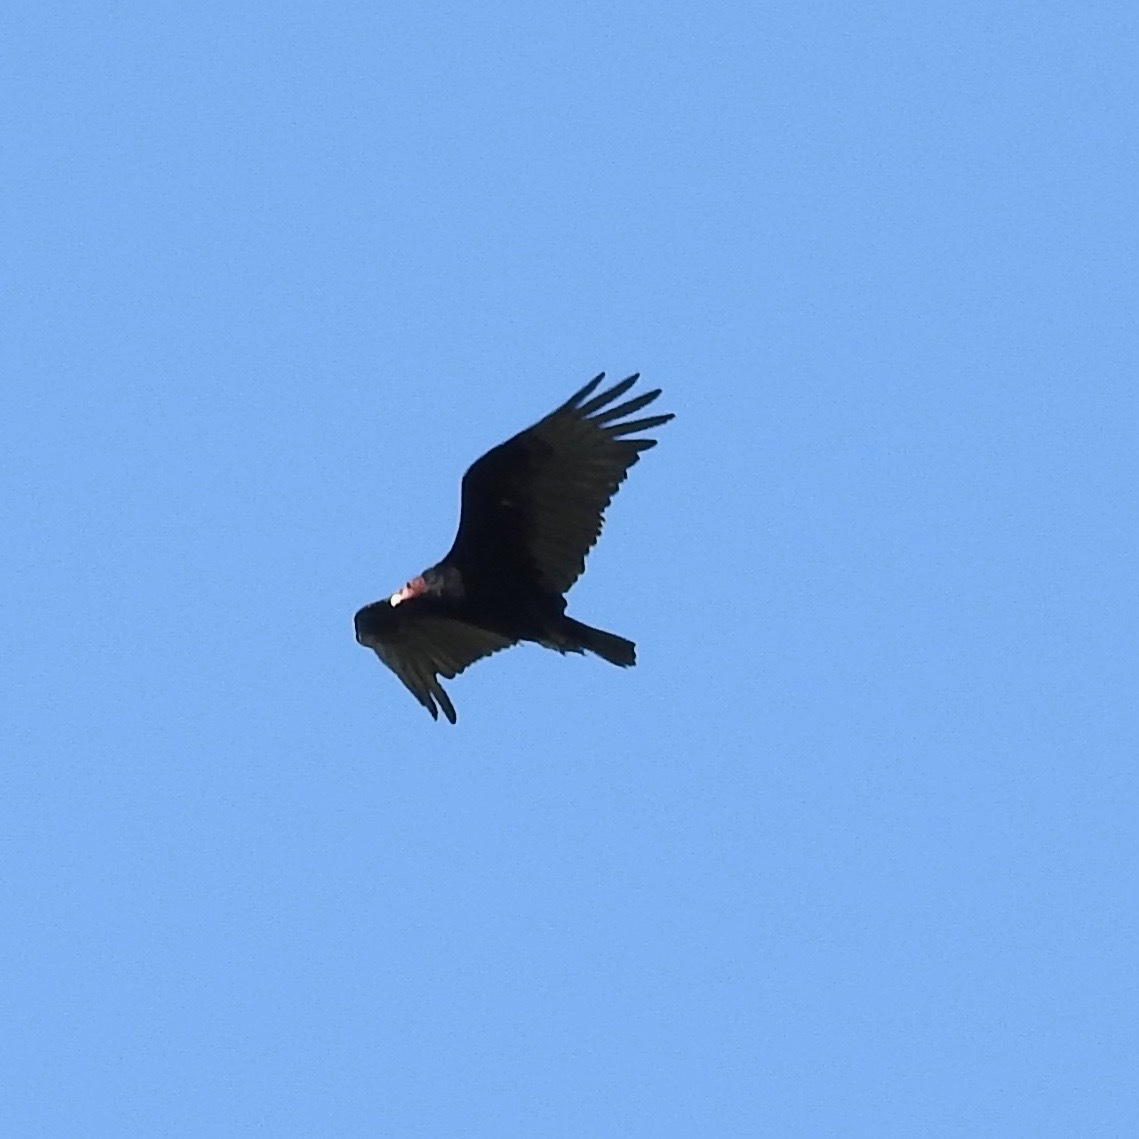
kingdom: Animalia
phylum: Chordata
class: Aves
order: Accipitriformes
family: Cathartidae
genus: Cathartes
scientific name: Cathartes aura
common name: Turkey vulture
